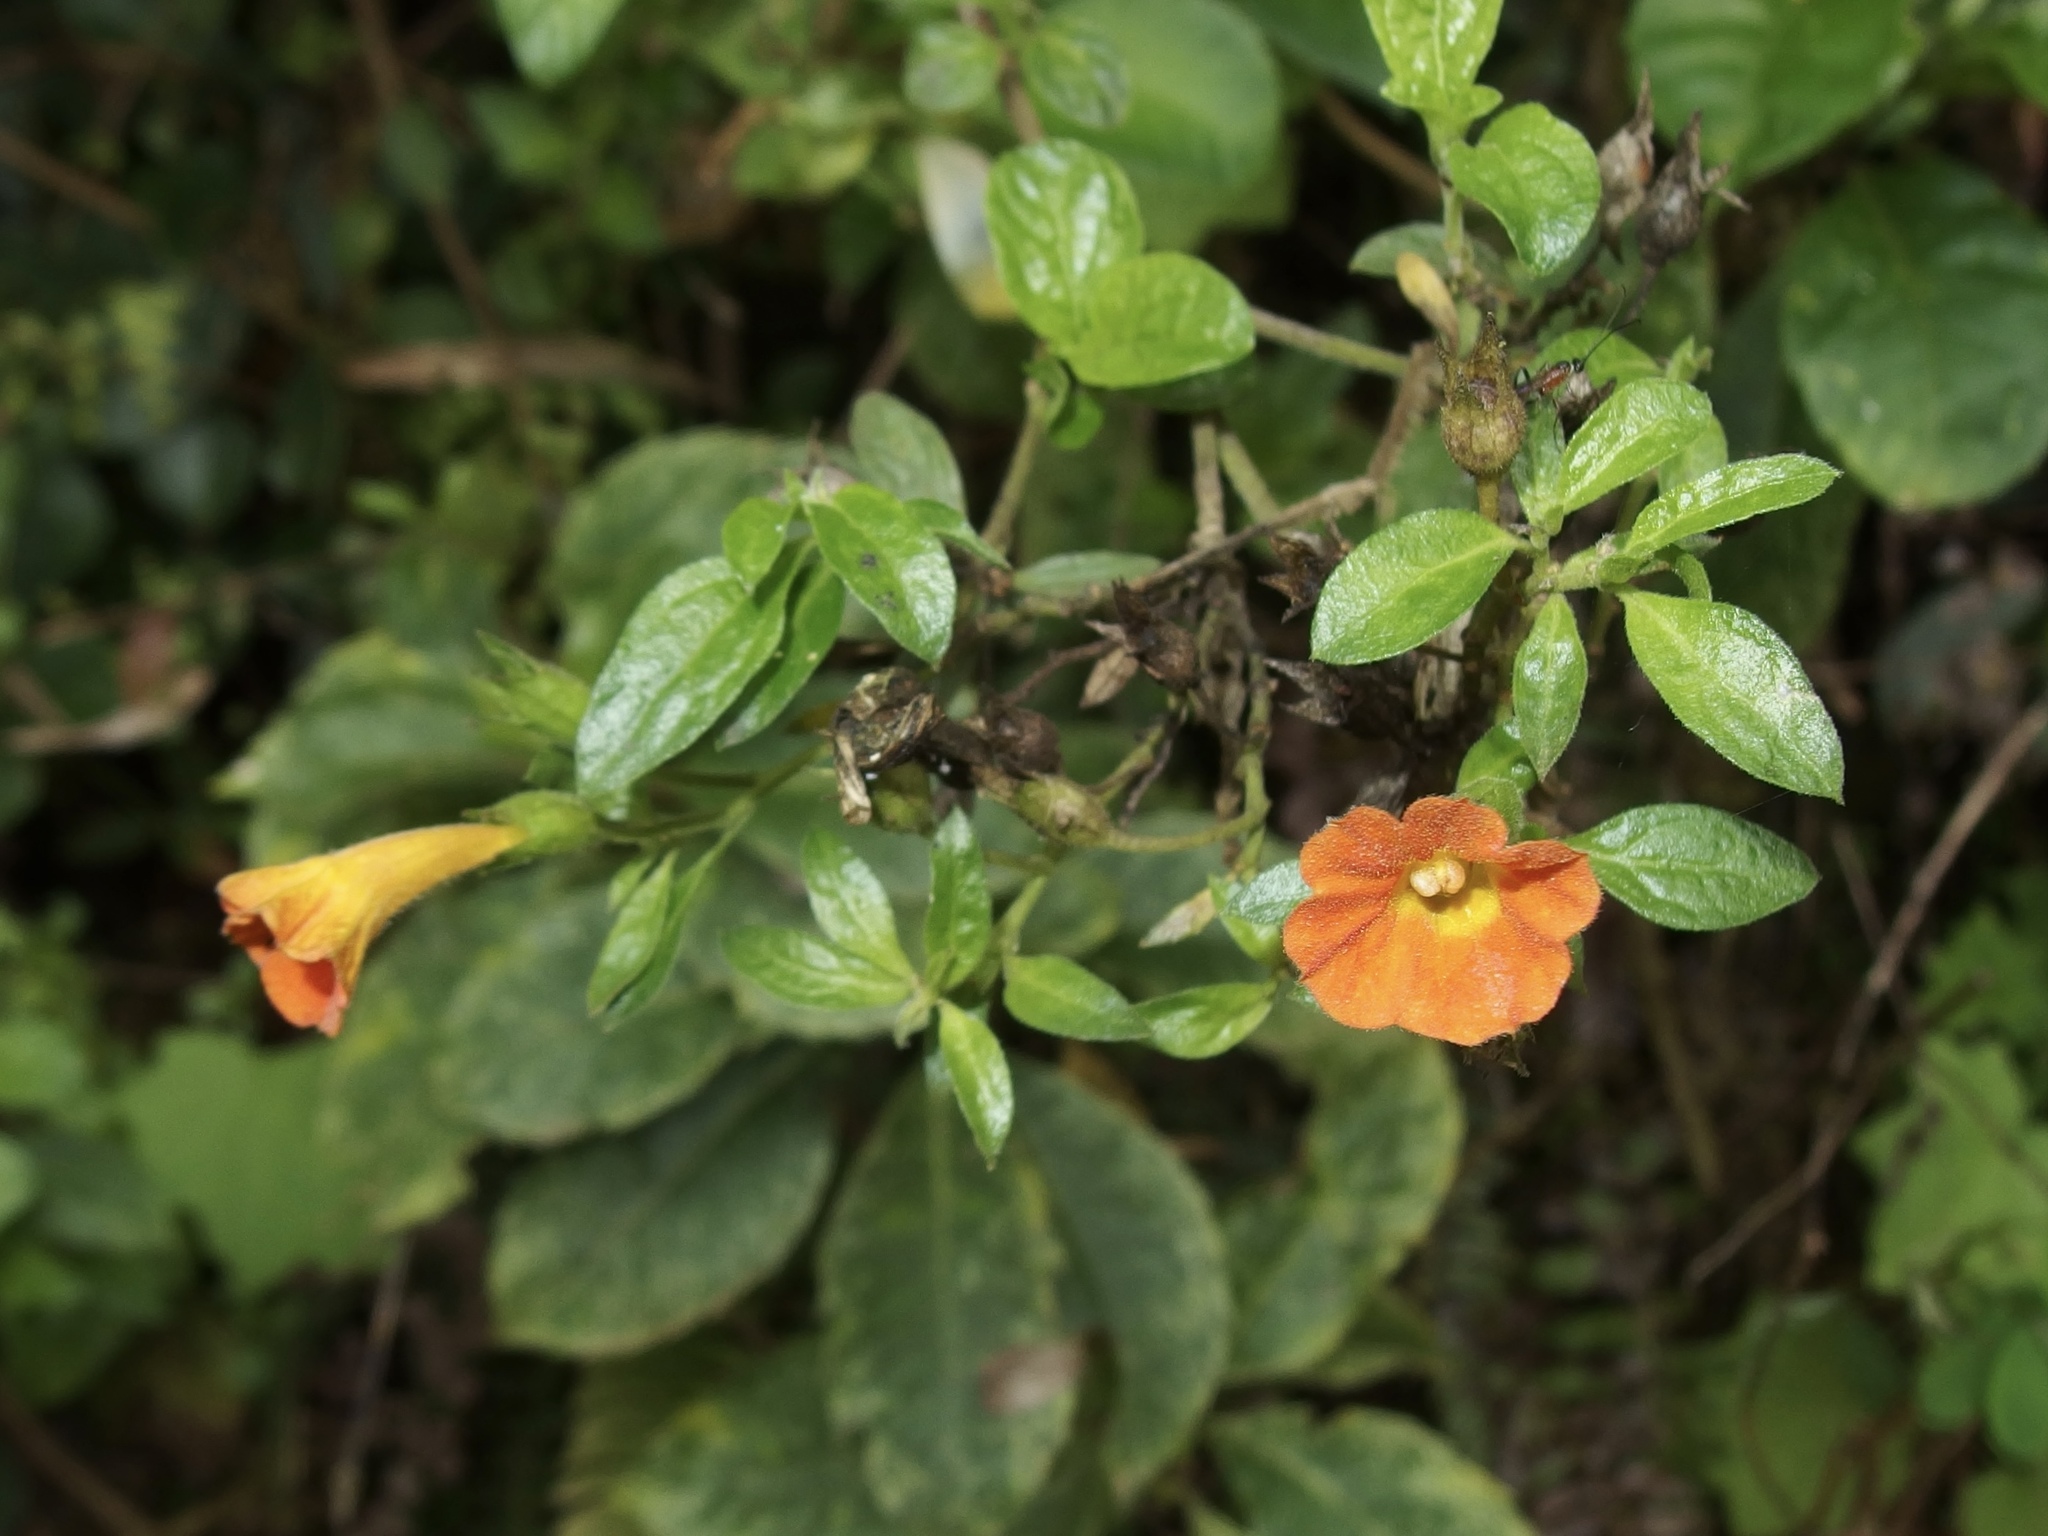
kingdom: Plantae
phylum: Tracheophyta
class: Magnoliopsida
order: Solanales
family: Solanaceae
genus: Streptosolen
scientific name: Streptosolen jamesonii
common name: Marmalade bush
